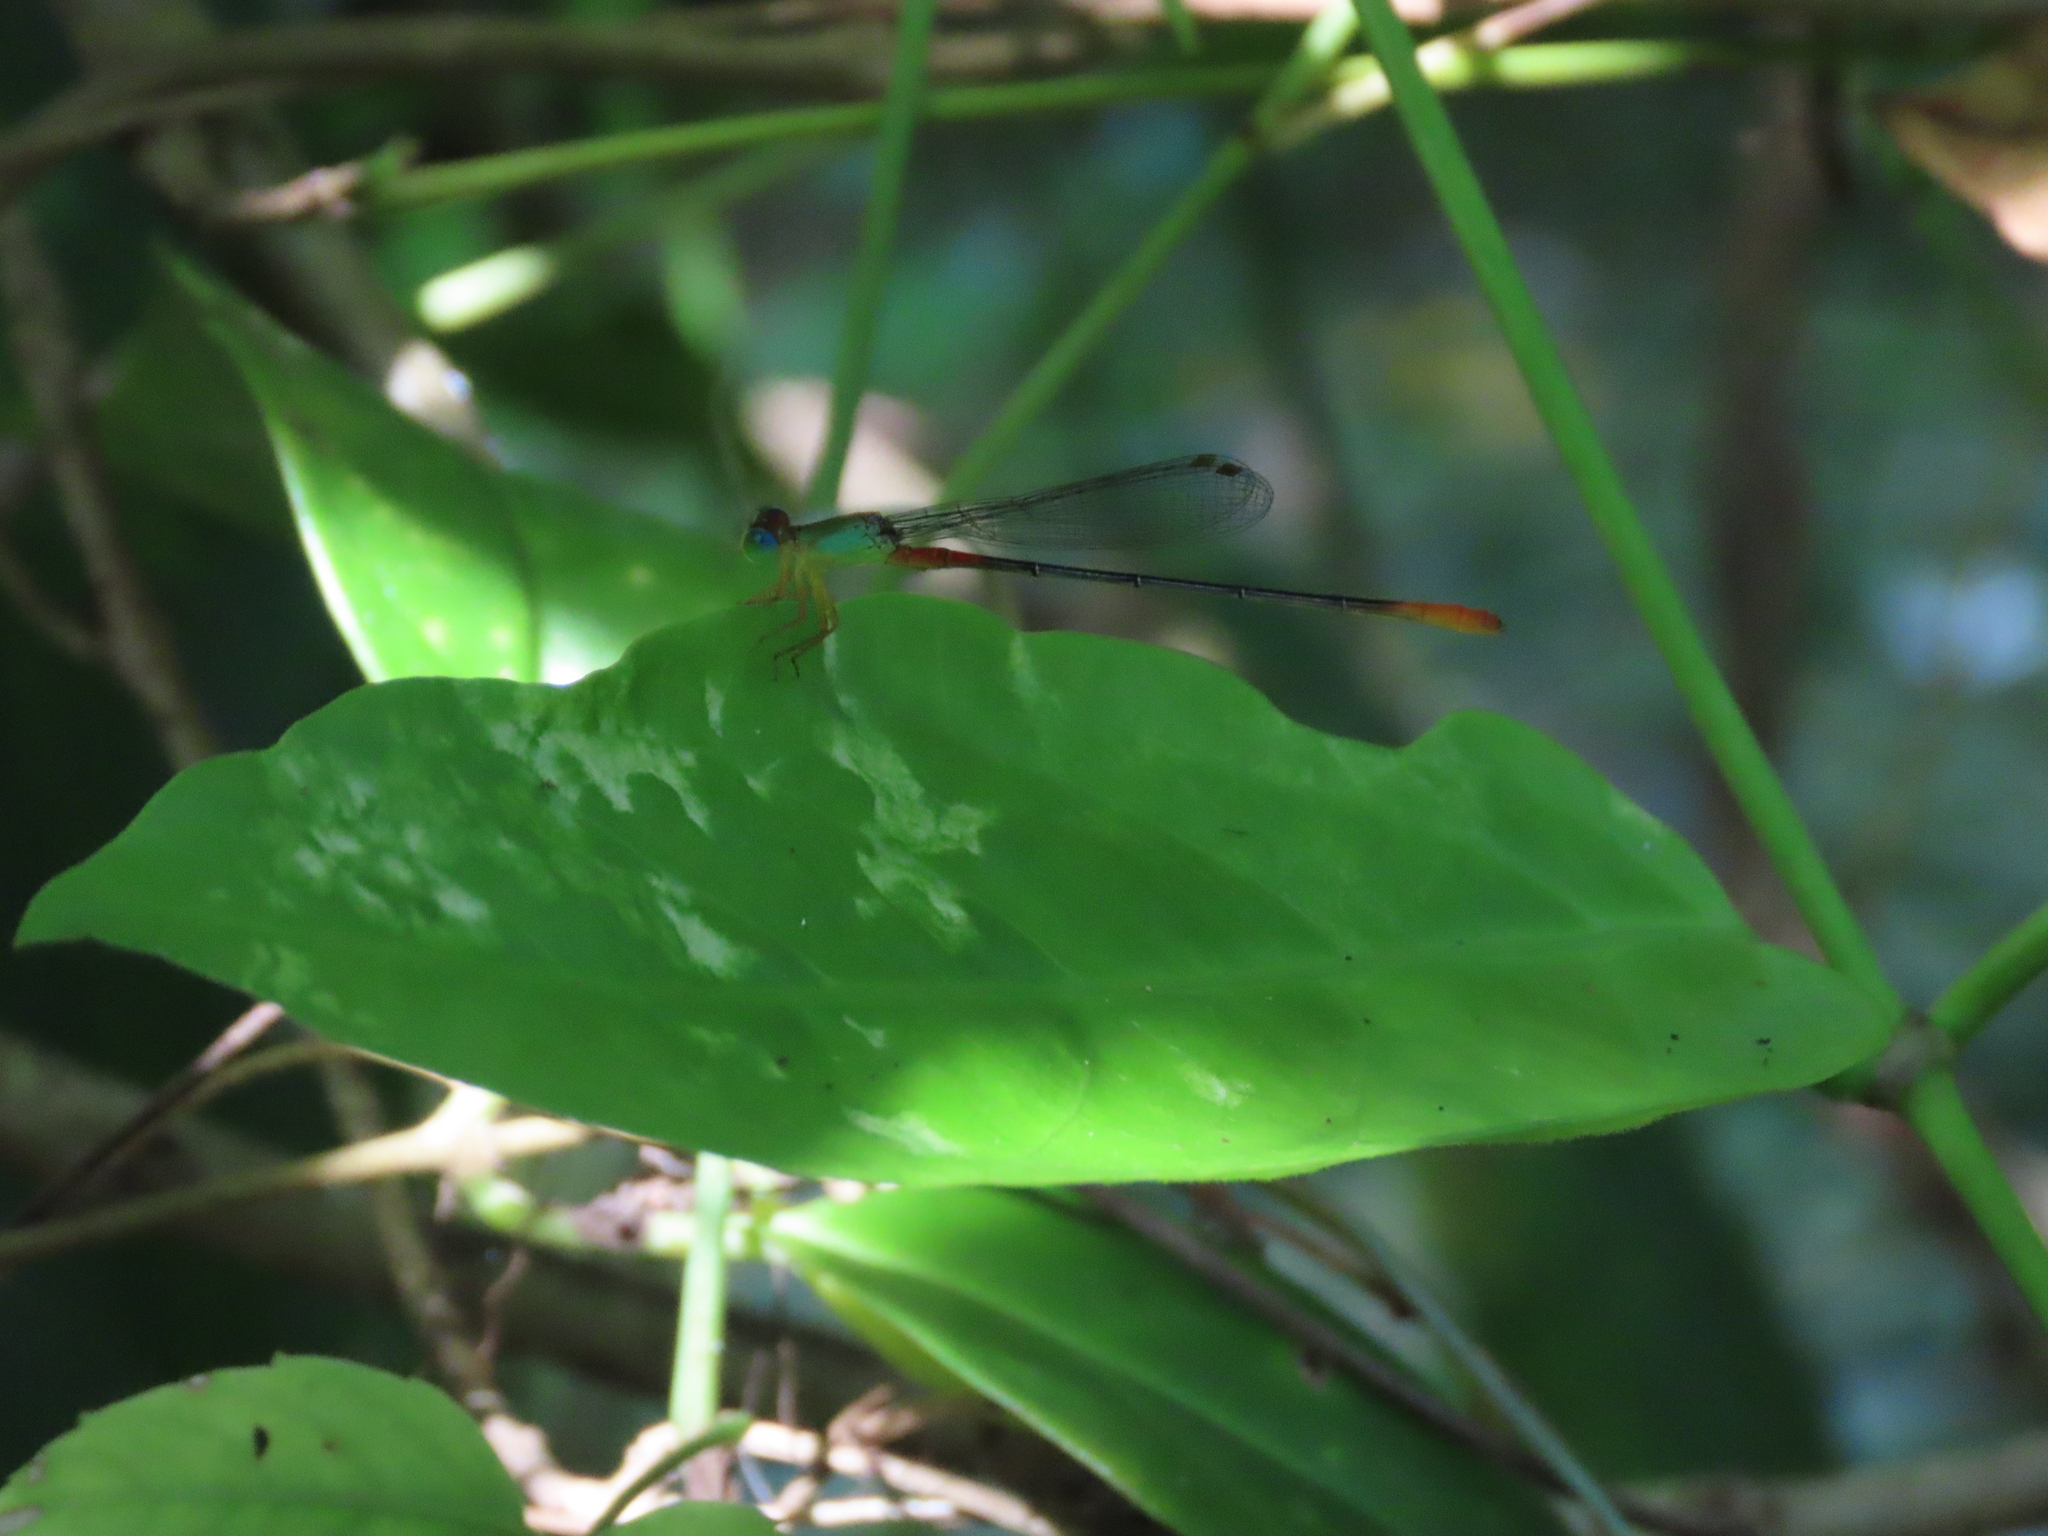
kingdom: Animalia
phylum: Arthropoda
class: Insecta
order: Odonata
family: Coenagrionidae
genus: Ceriagrion
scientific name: Ceriagrion cerinorubellum
